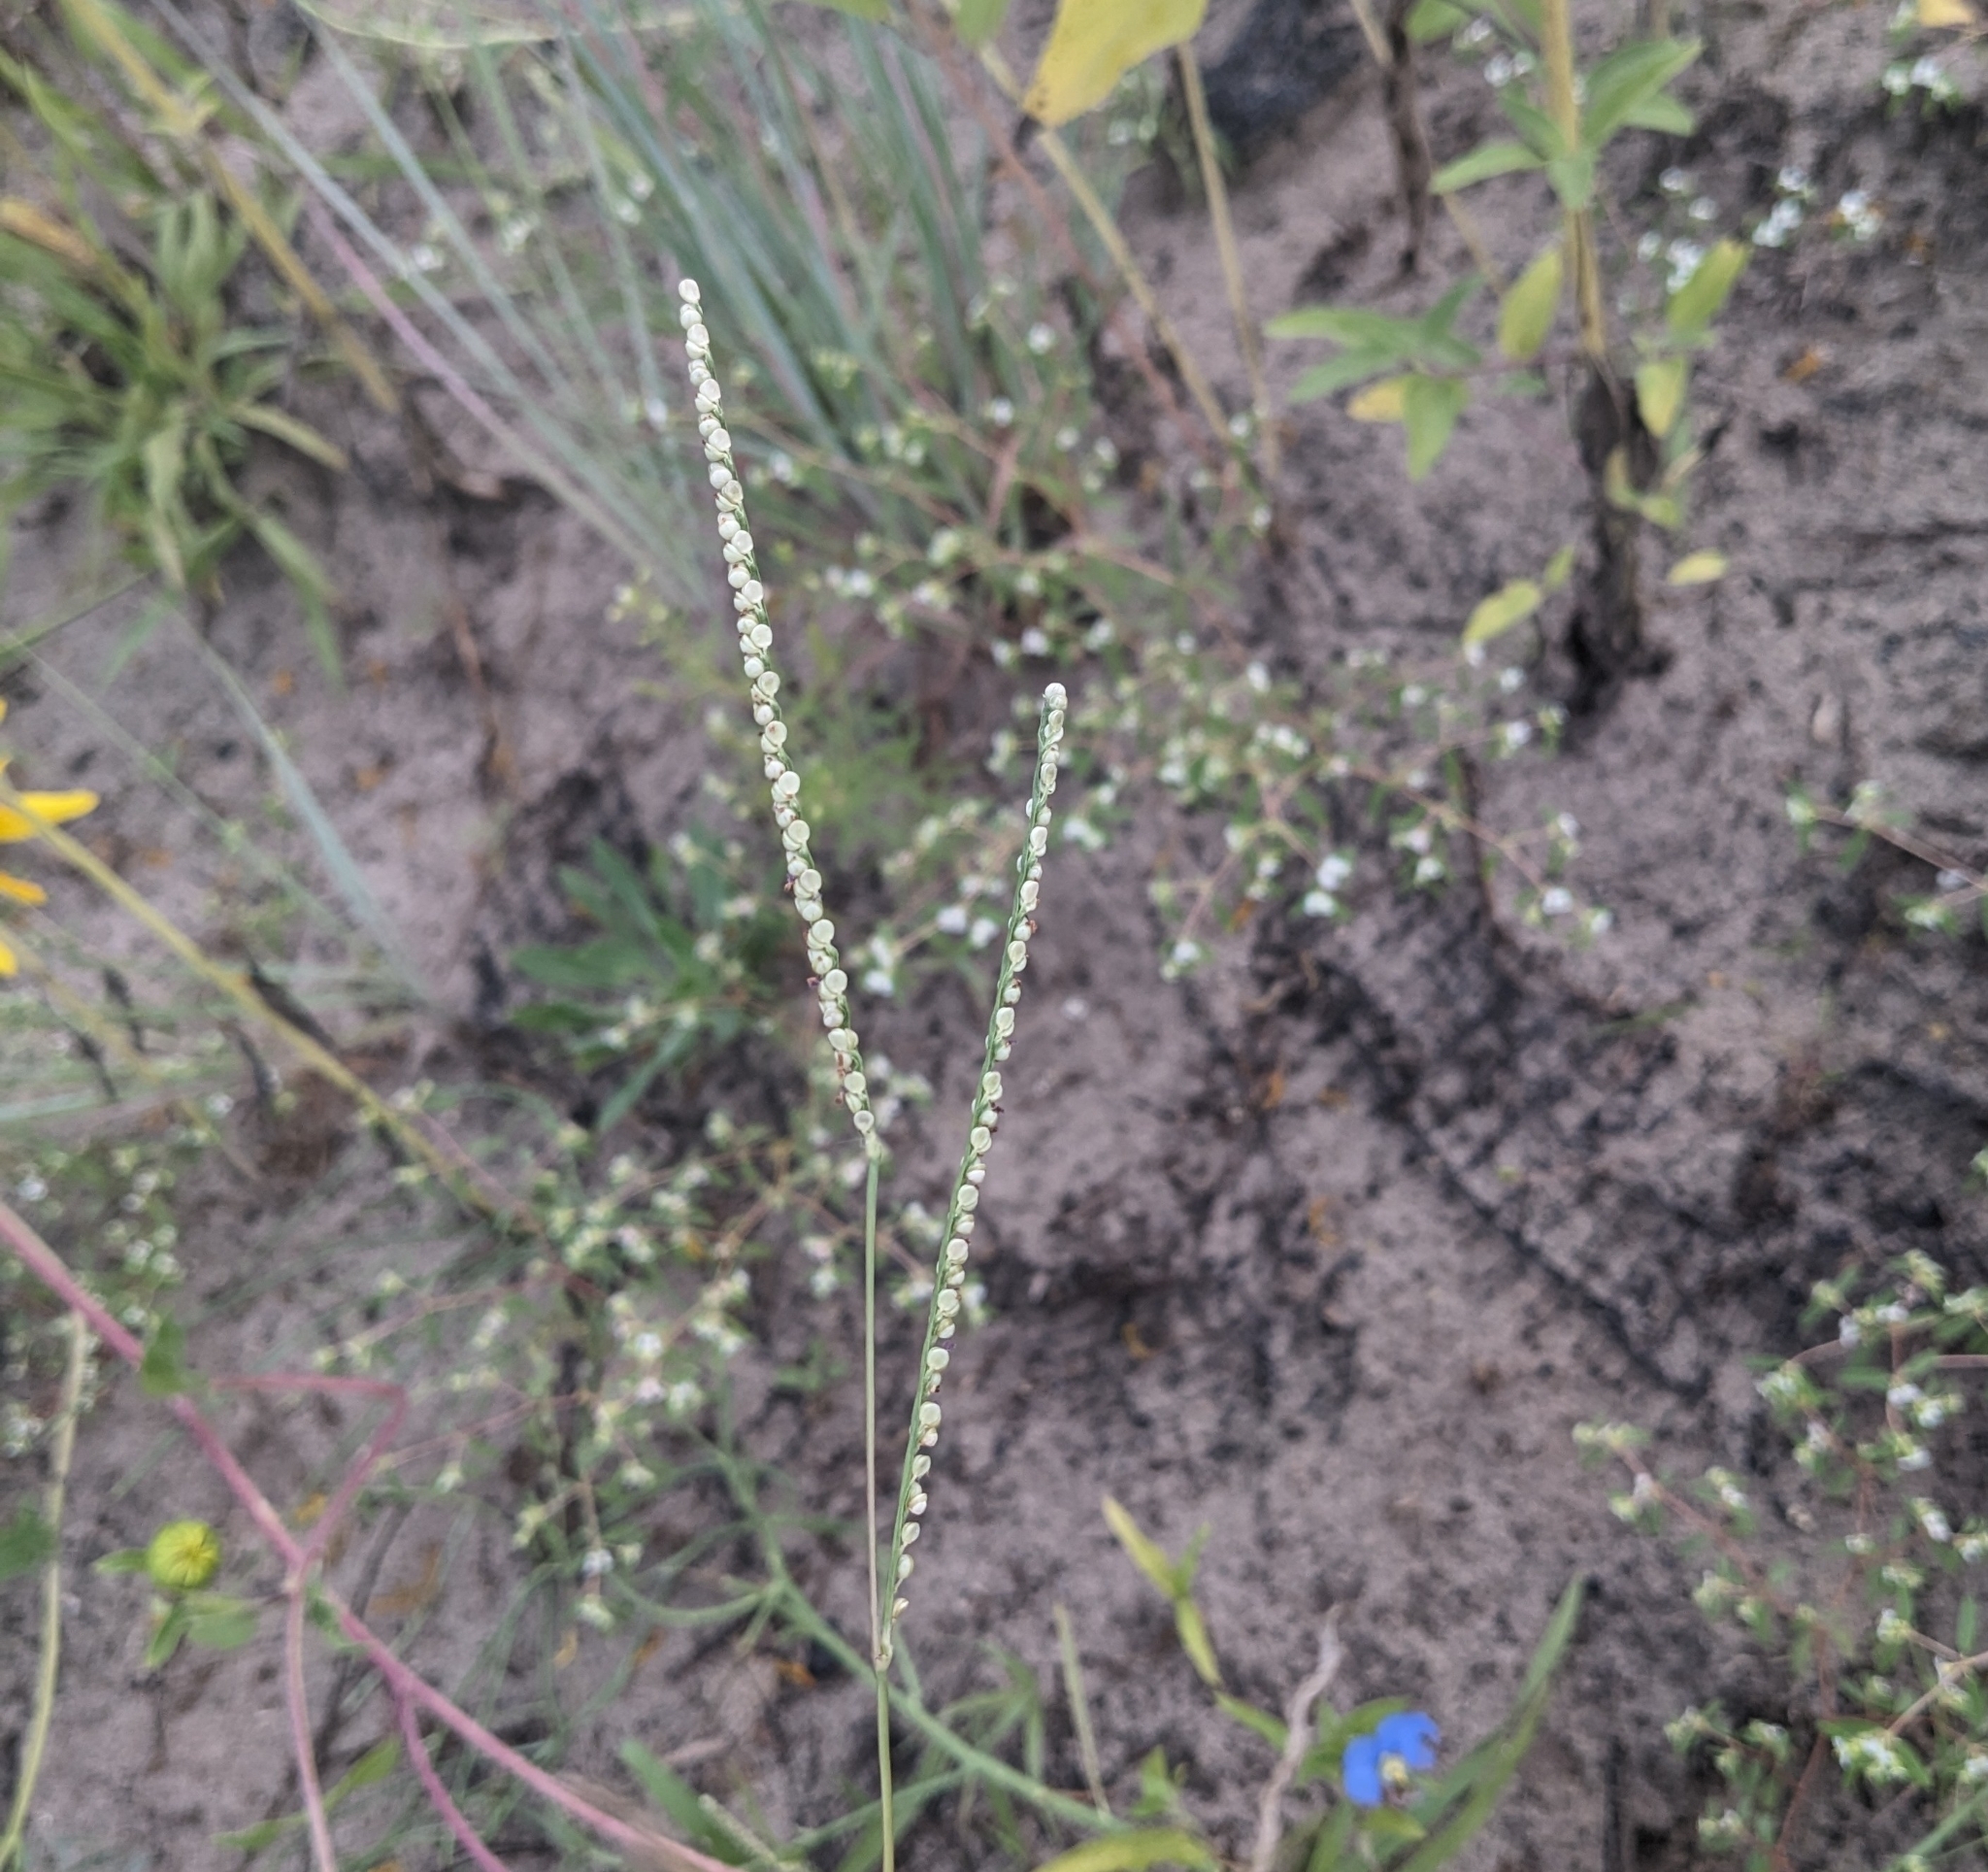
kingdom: Plantae
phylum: Tracheophyta
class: Liliopsida
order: Poales
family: Poaceae
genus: Paspalum
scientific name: Paspalum setaceum
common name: Slender paspalum
